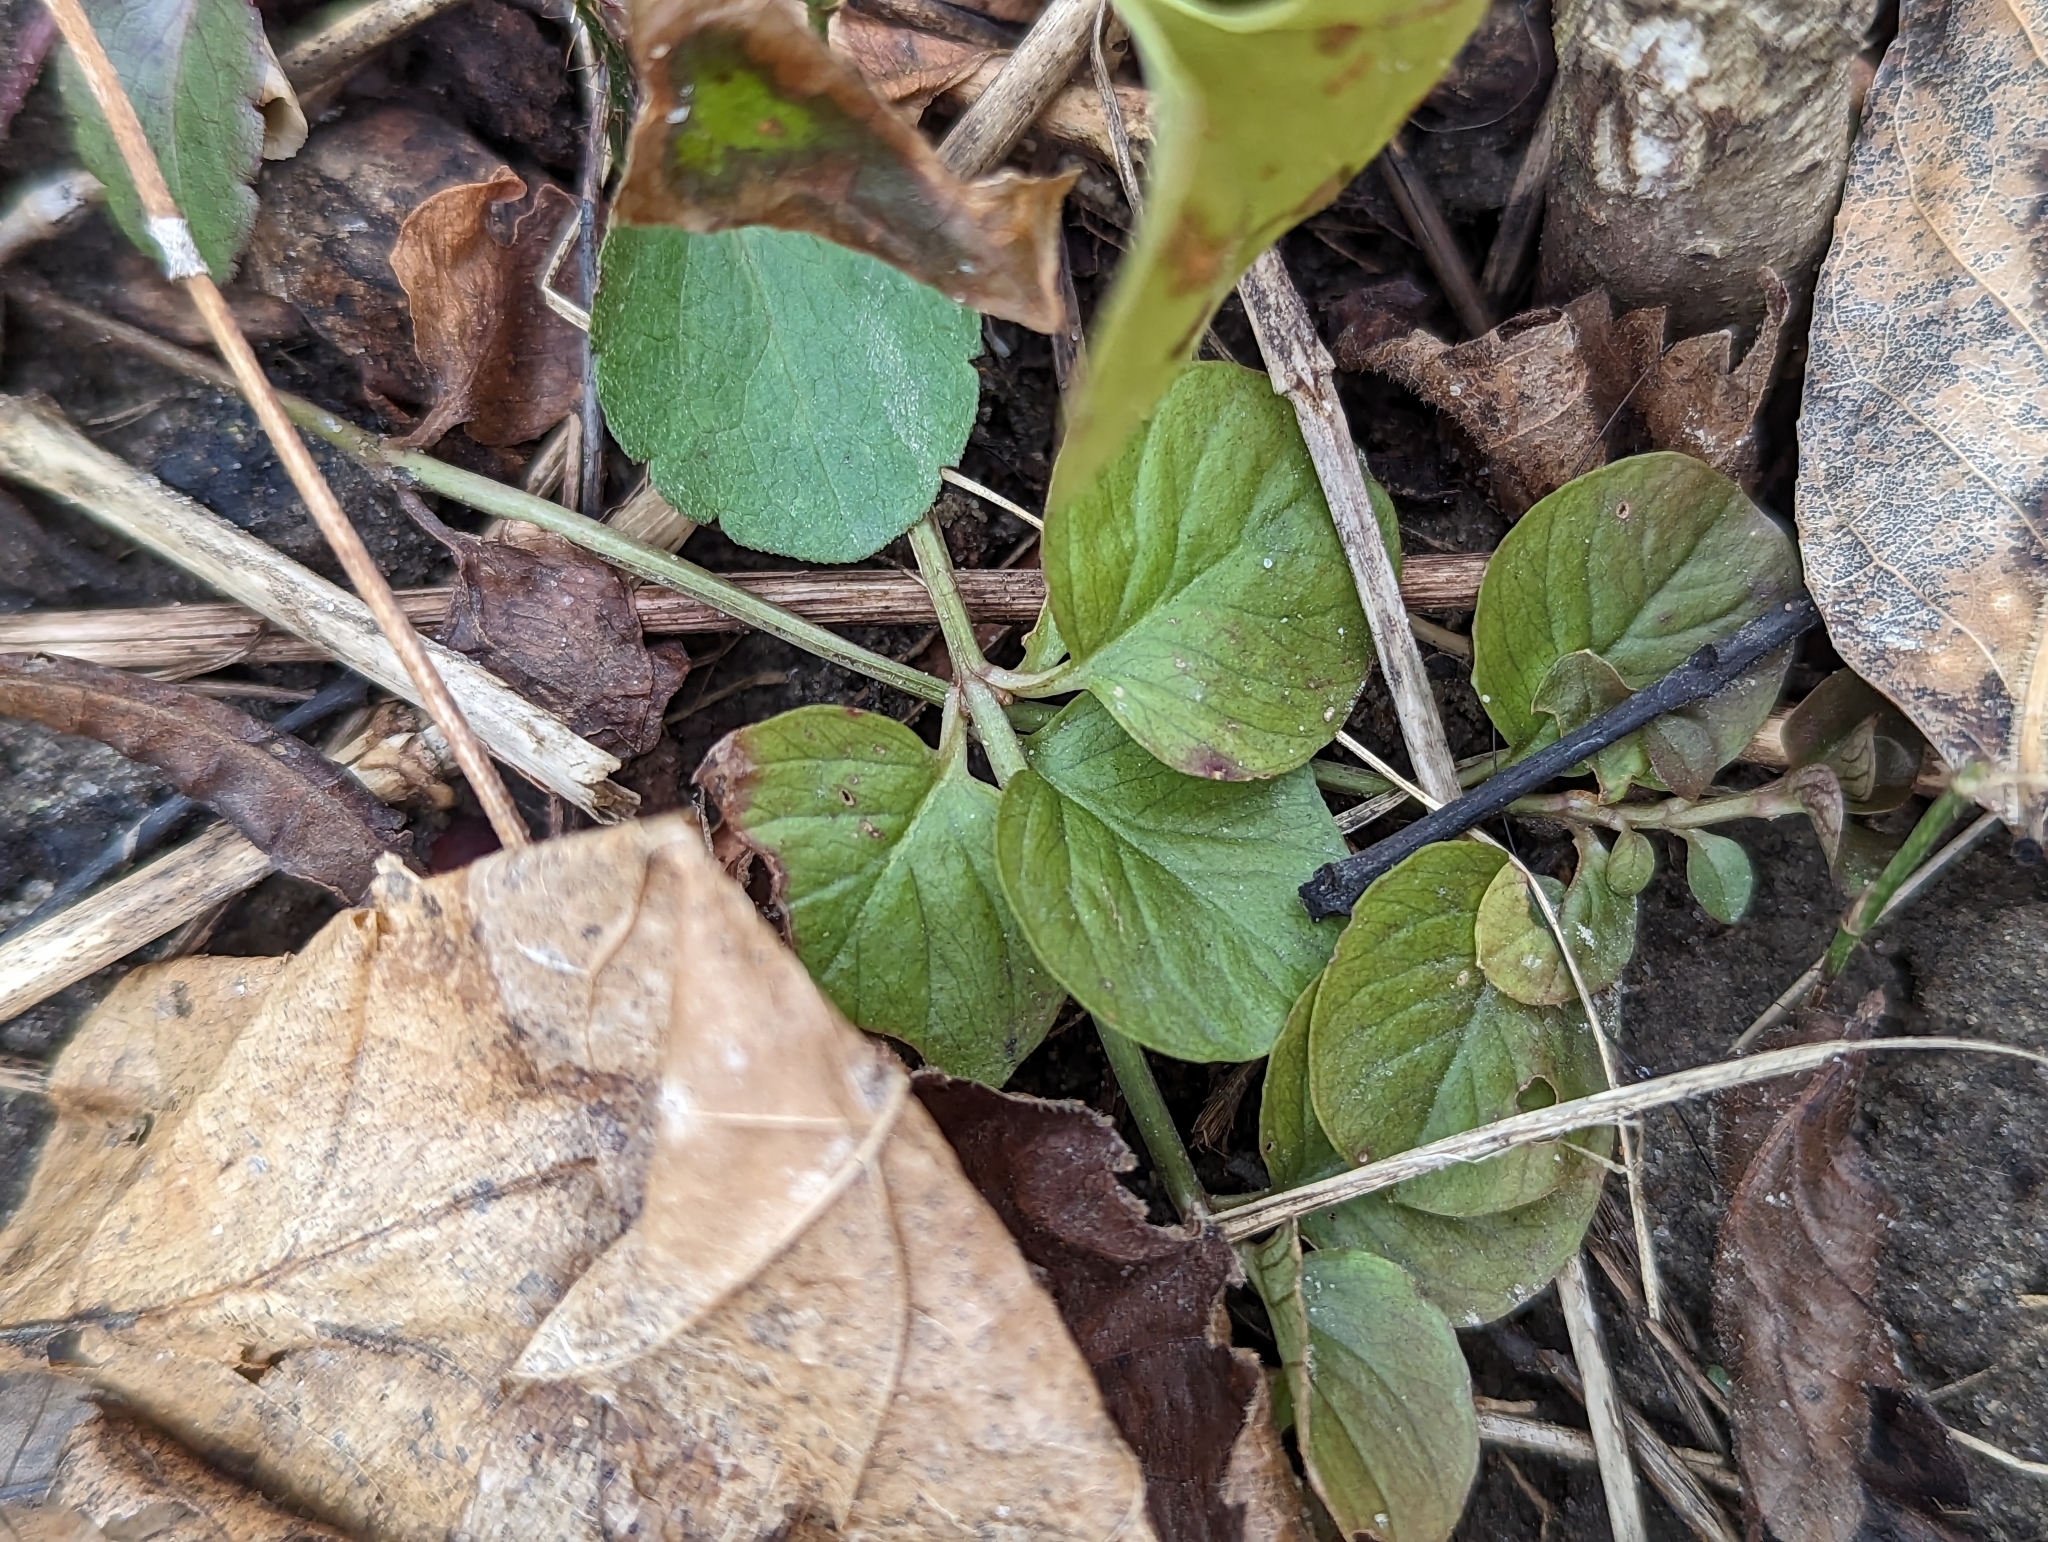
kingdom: Plantae
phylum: Tracheophyta
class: Magnoliopsida
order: Ericales
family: Primulaceae
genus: Lysimachia
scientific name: Lysimachia nummularia
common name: Moneywort
